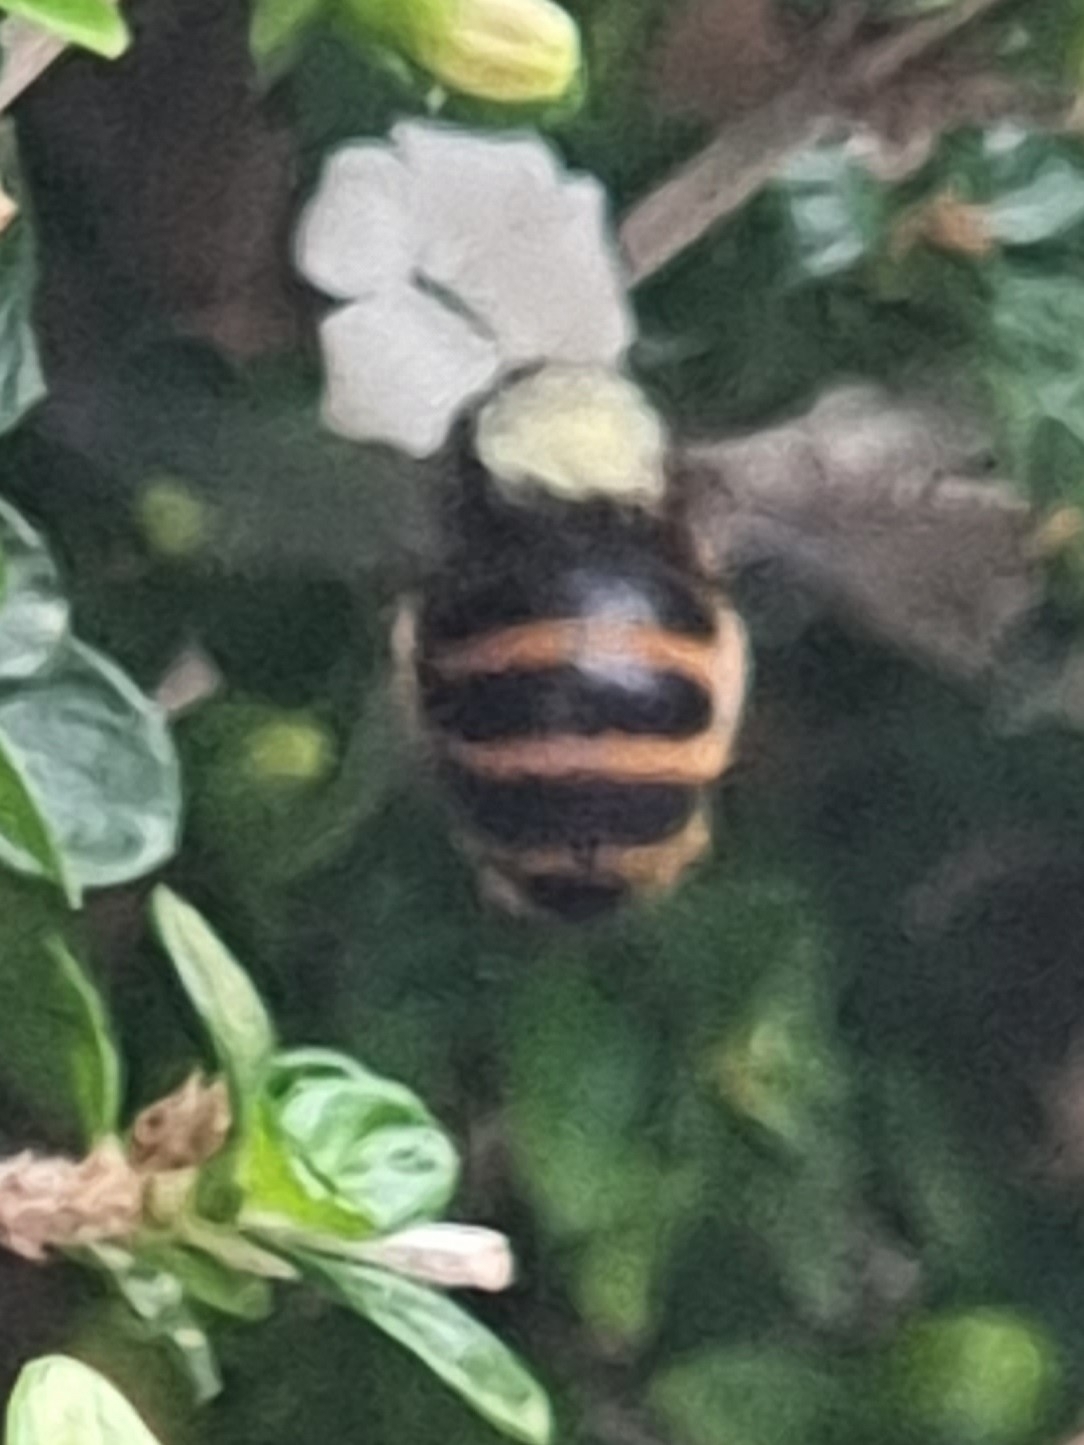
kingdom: Animalia
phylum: Arthropoda
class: Insecta
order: Hymenoptera
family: Apidae
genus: Amegilla
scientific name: Amegilla quadrifasciata
